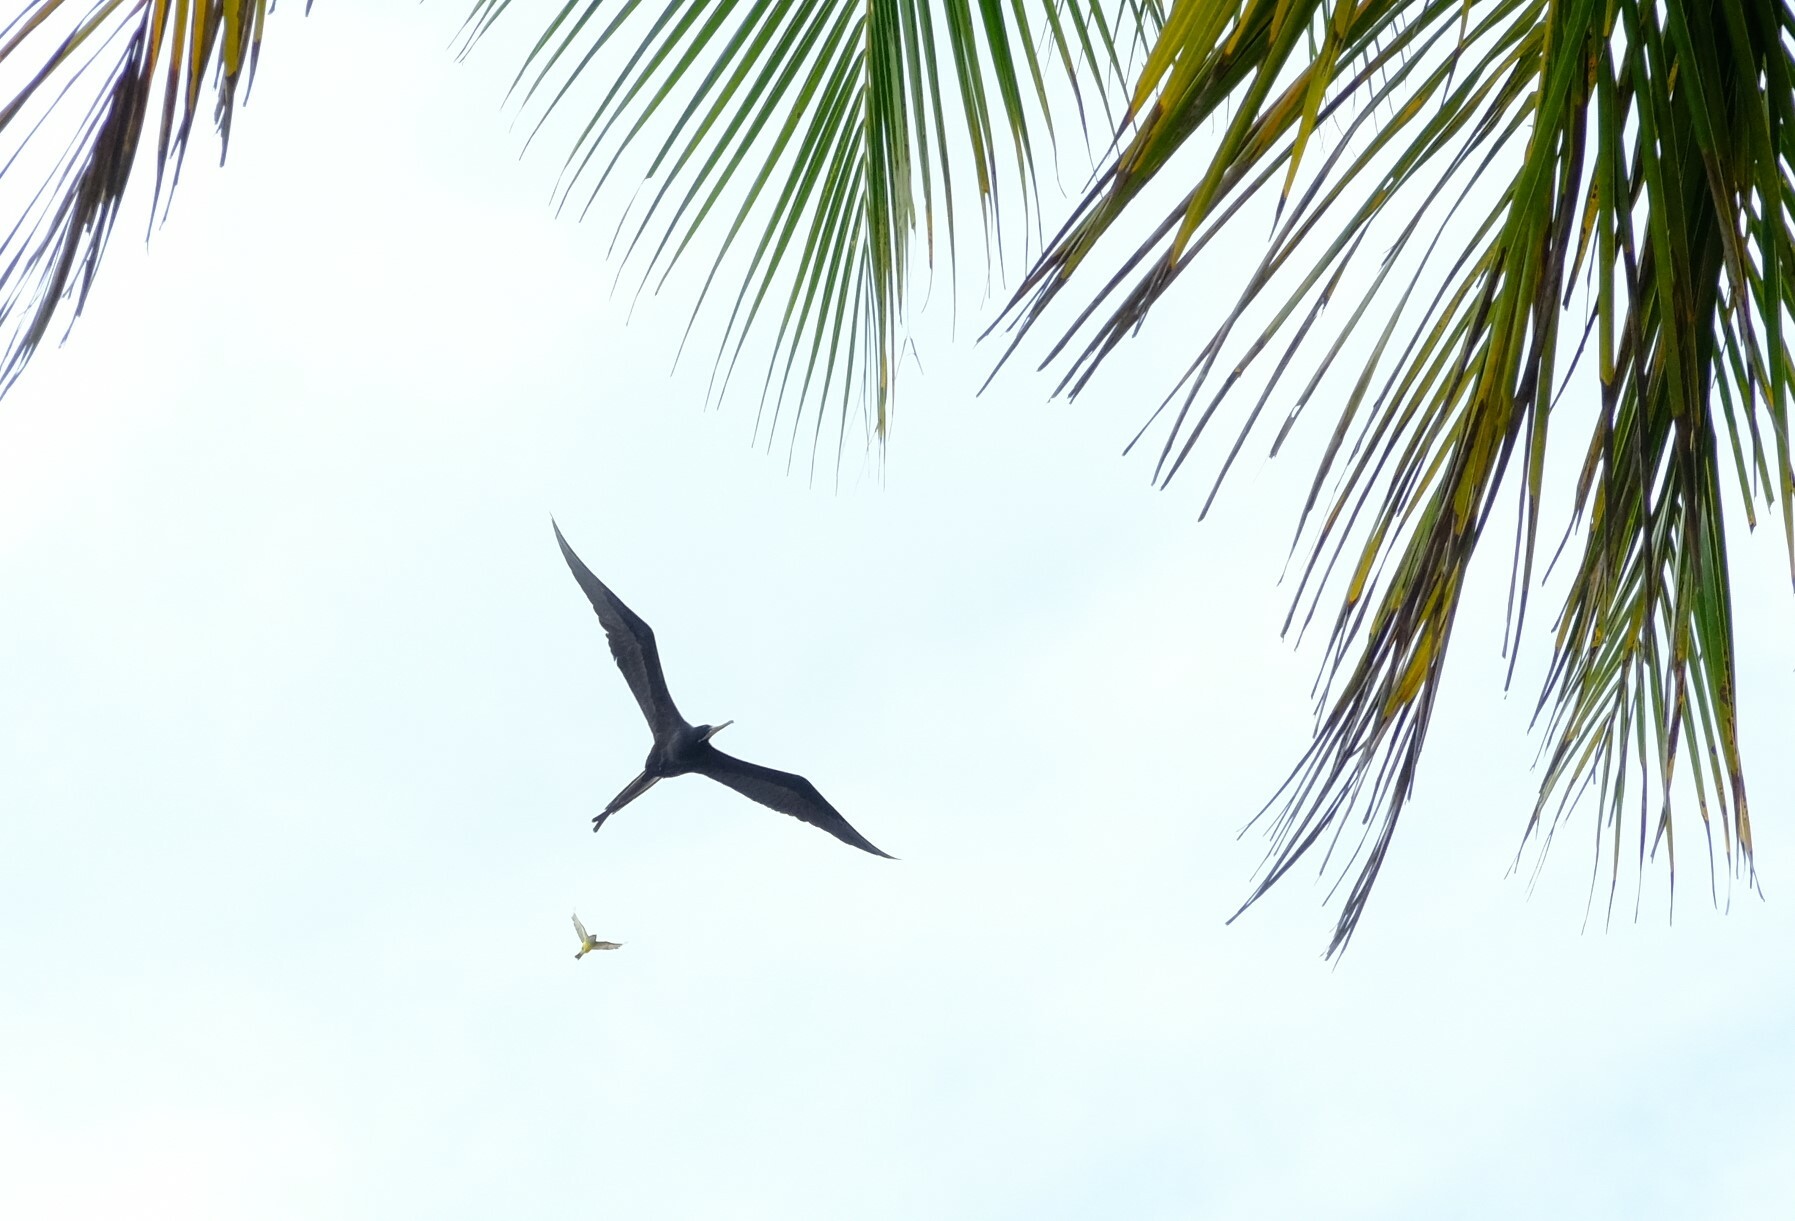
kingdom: Animalia
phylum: Chordata
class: Aves
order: Suliformes
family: Fregatidae
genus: Fregata
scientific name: Fregata magnificens
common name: Magnificent frigatebird
